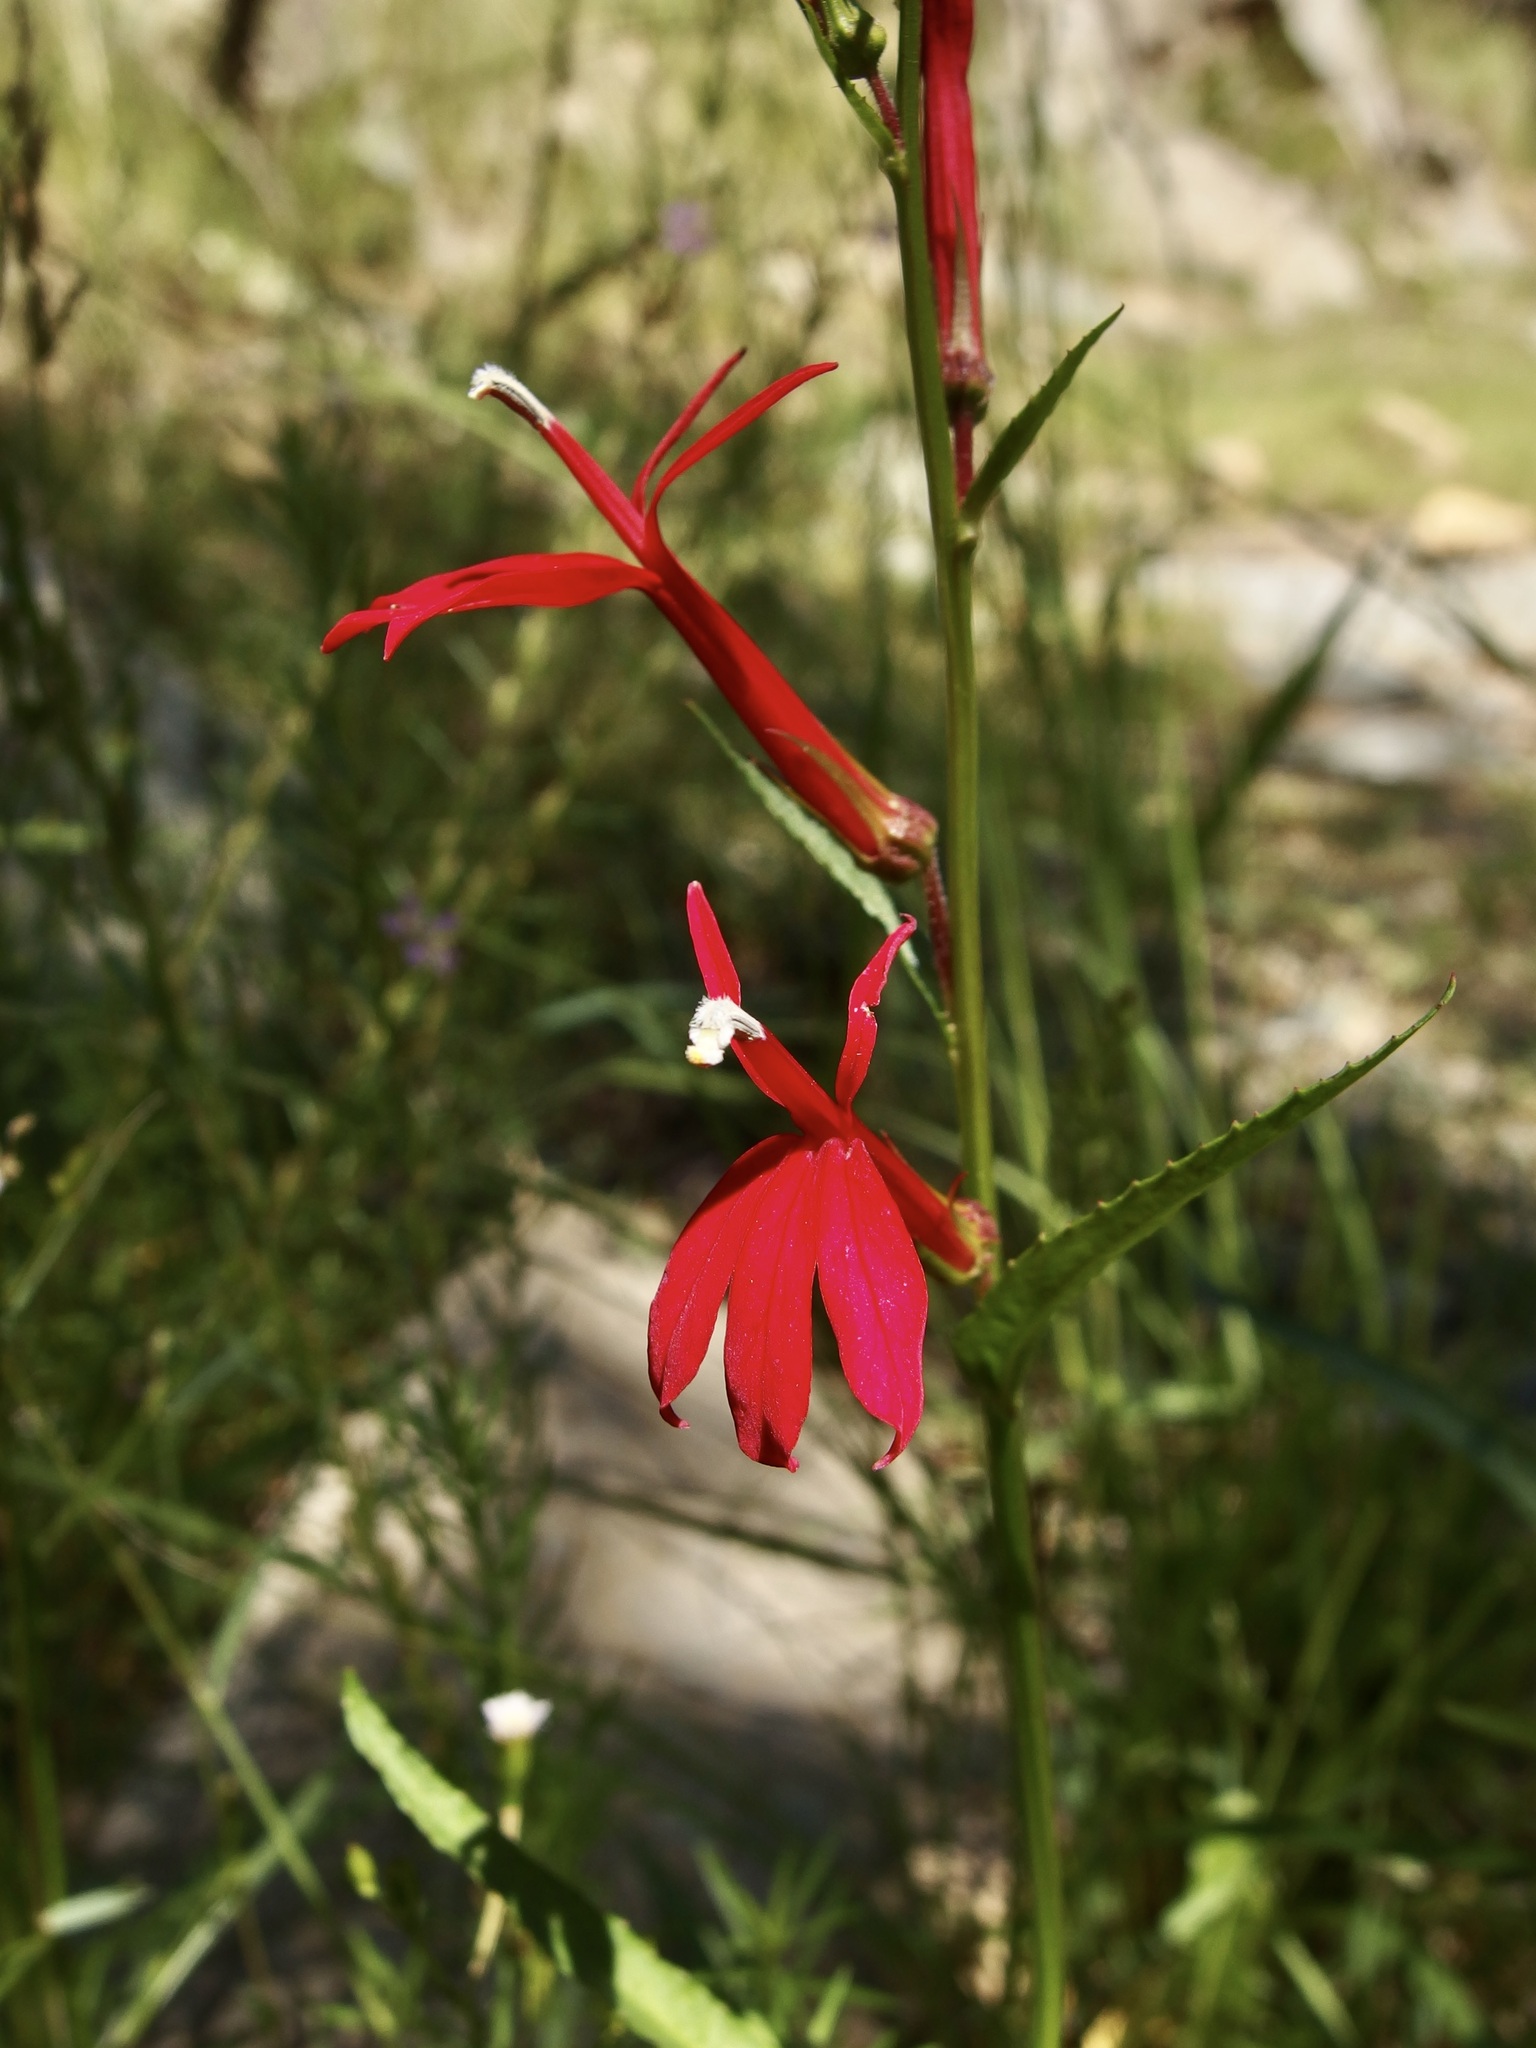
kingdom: Plantae
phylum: Tracheophyta
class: Magnoliopsida
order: Asterales
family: Campanulaceae
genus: Lobelia
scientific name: Lobelia cardinalis
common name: Cardinal flower
